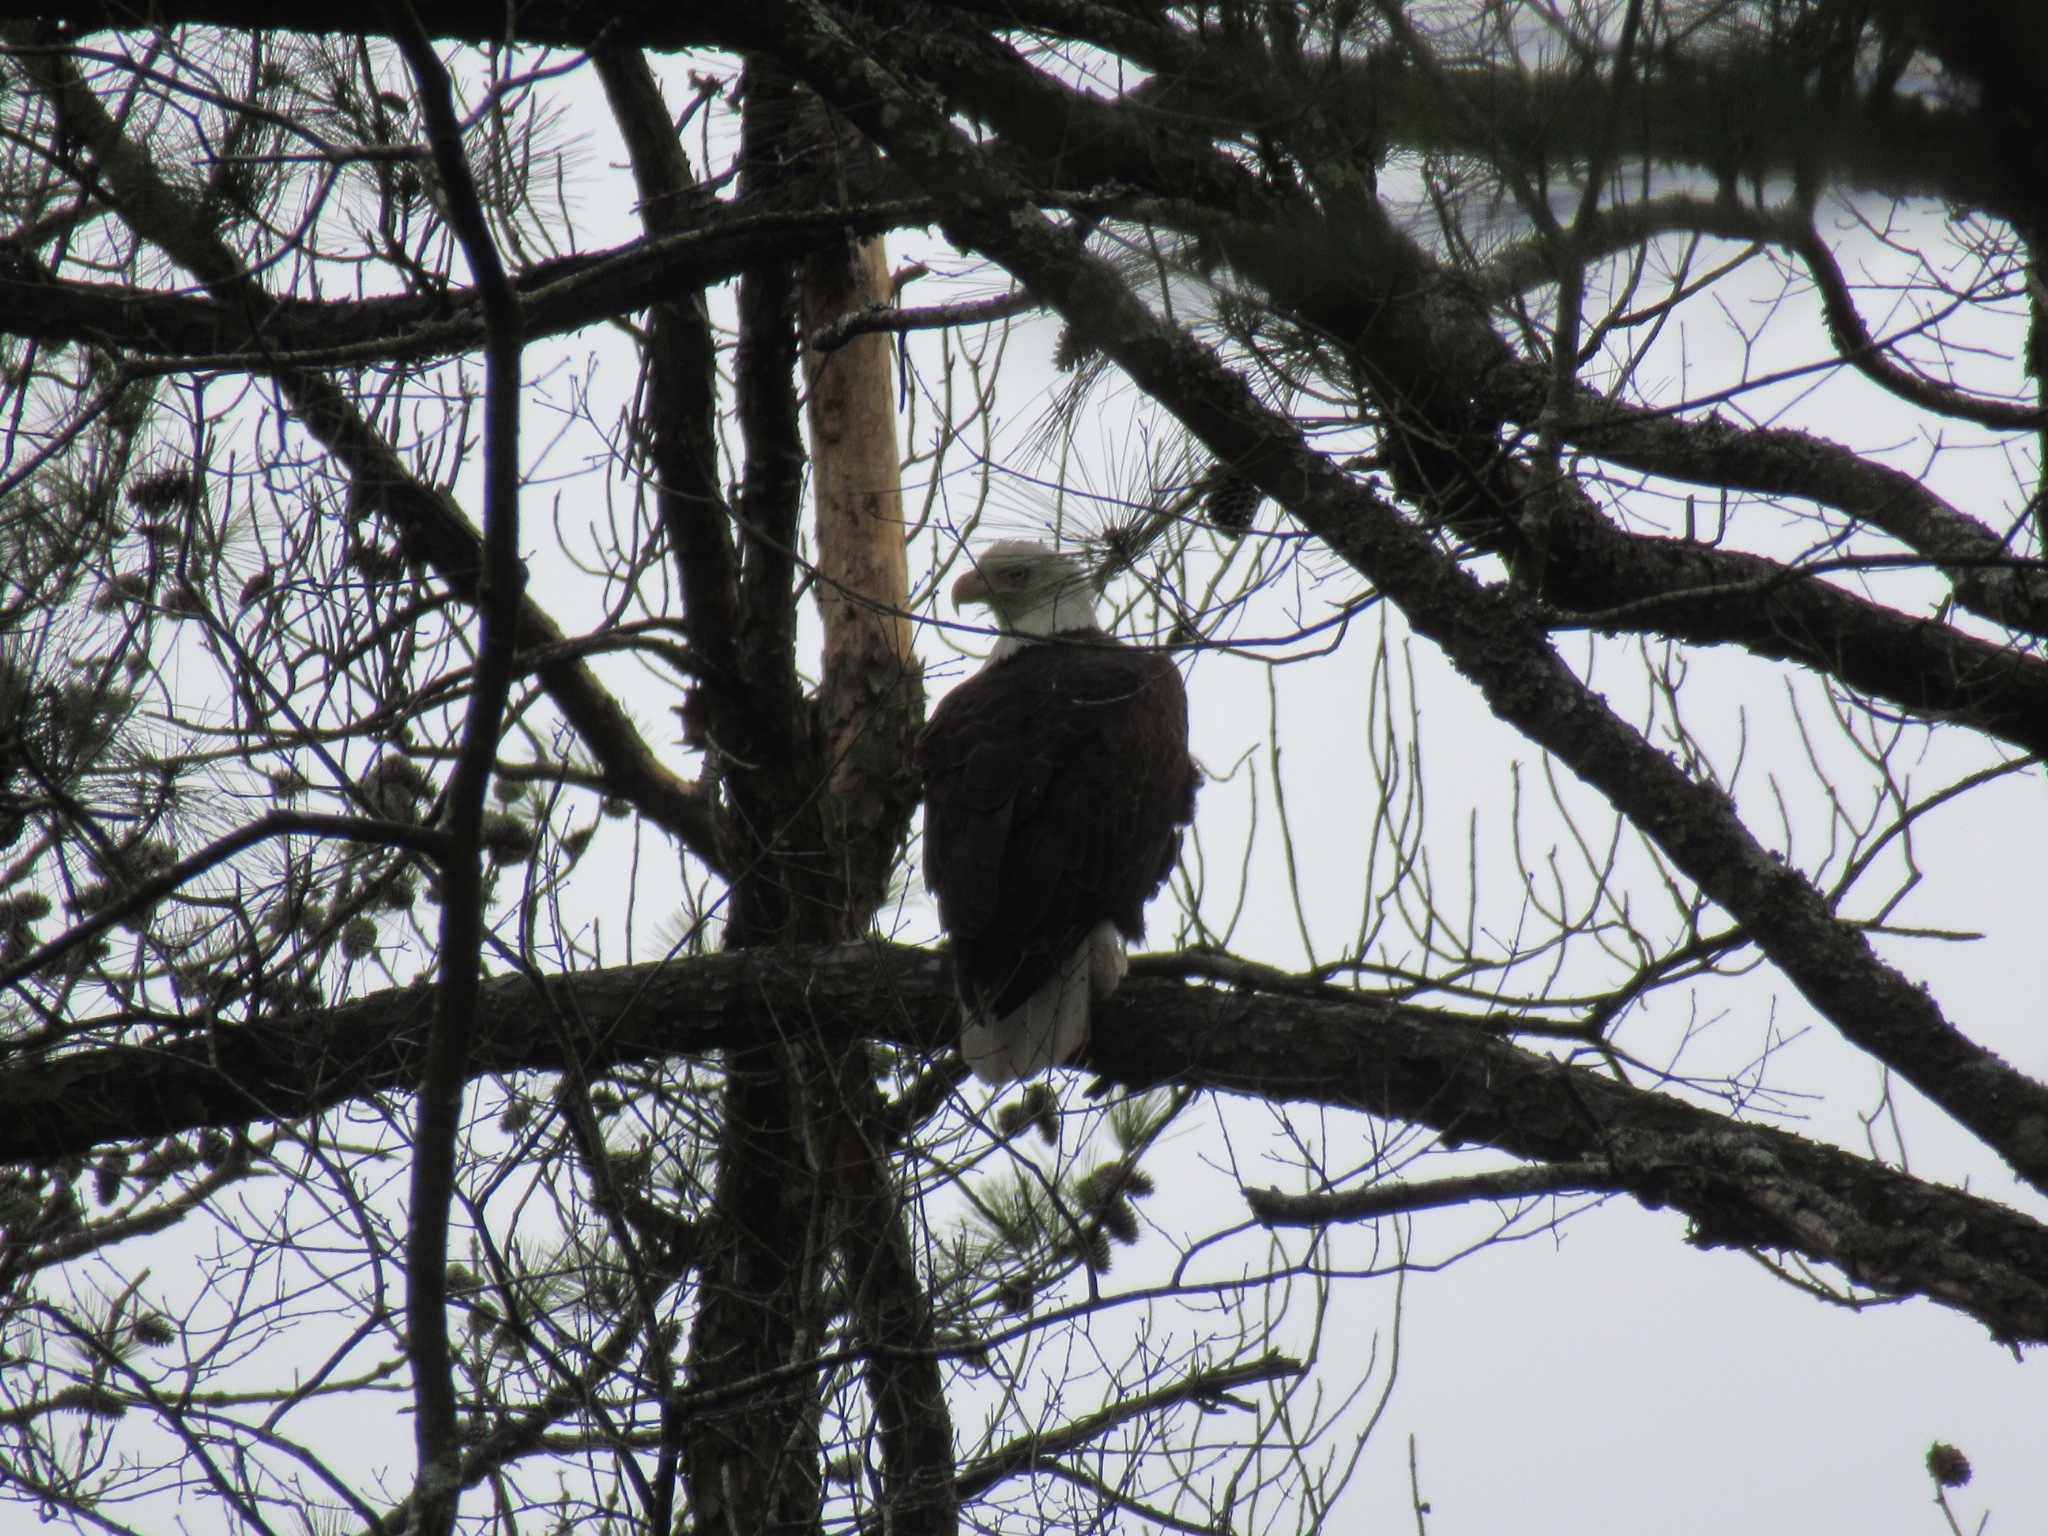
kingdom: Animalia
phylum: Chordata
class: Aves
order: Accipitriformes
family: Accipitridae
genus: Haliaeetus
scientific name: Haliaeetus leucocephalus
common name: Bald eagle
